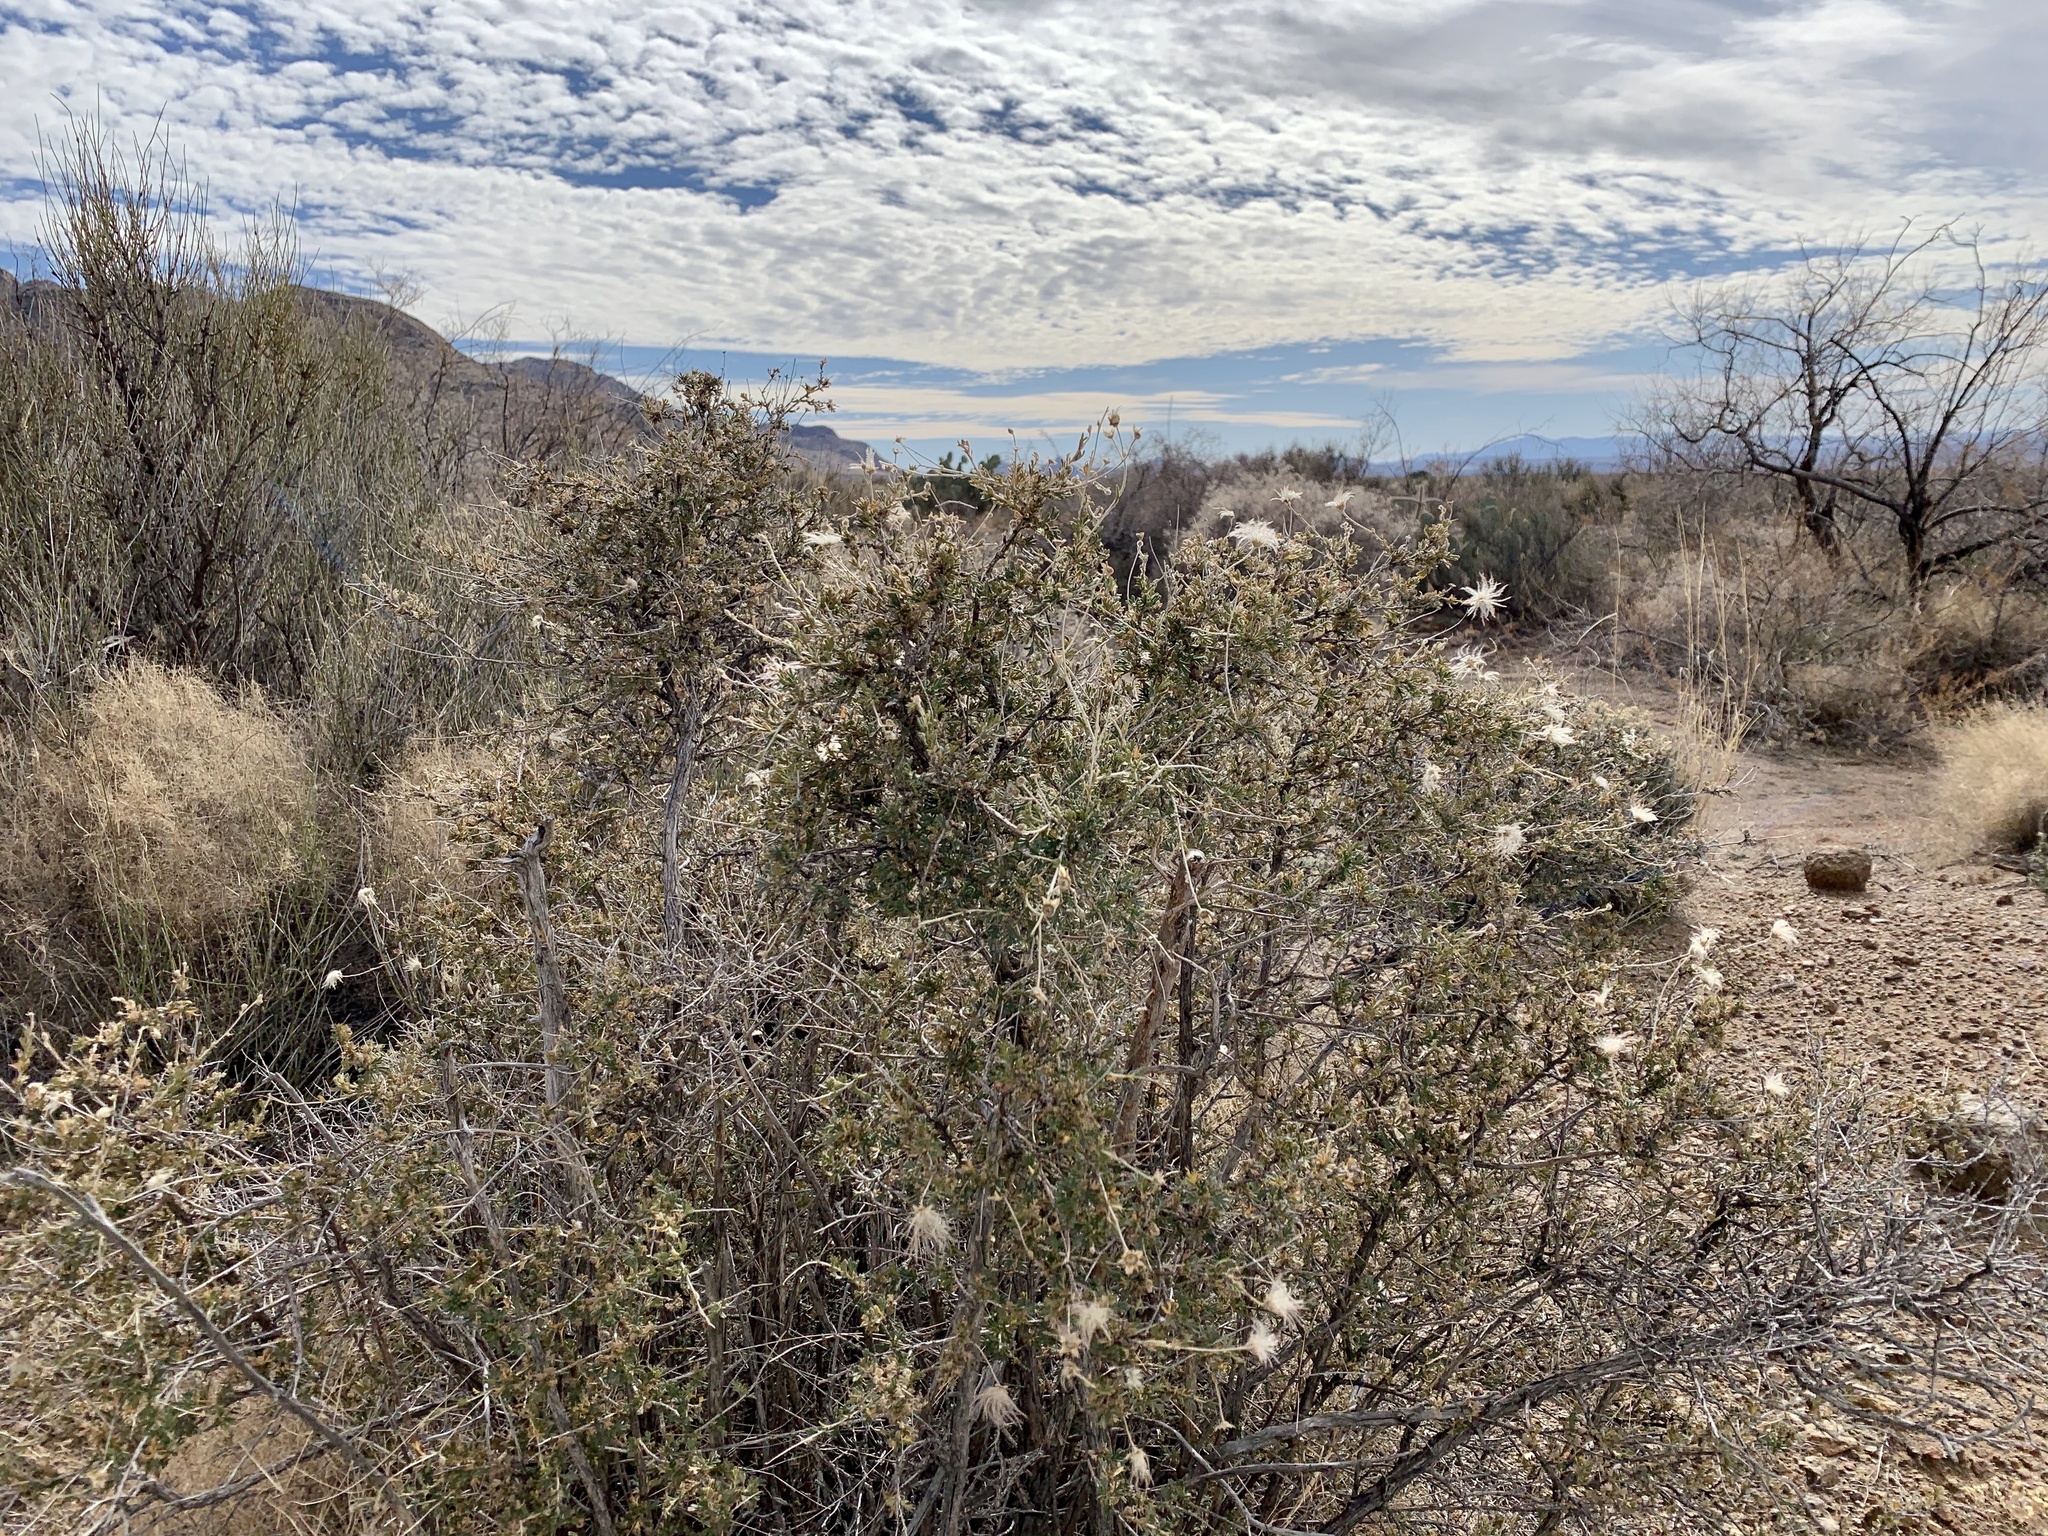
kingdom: Plantae
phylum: Tracheophyta
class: Magnoliopsida
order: Rosales
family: Rosaceae
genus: Fallugia
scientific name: Fallugia paradoxa
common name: Apache-plume
